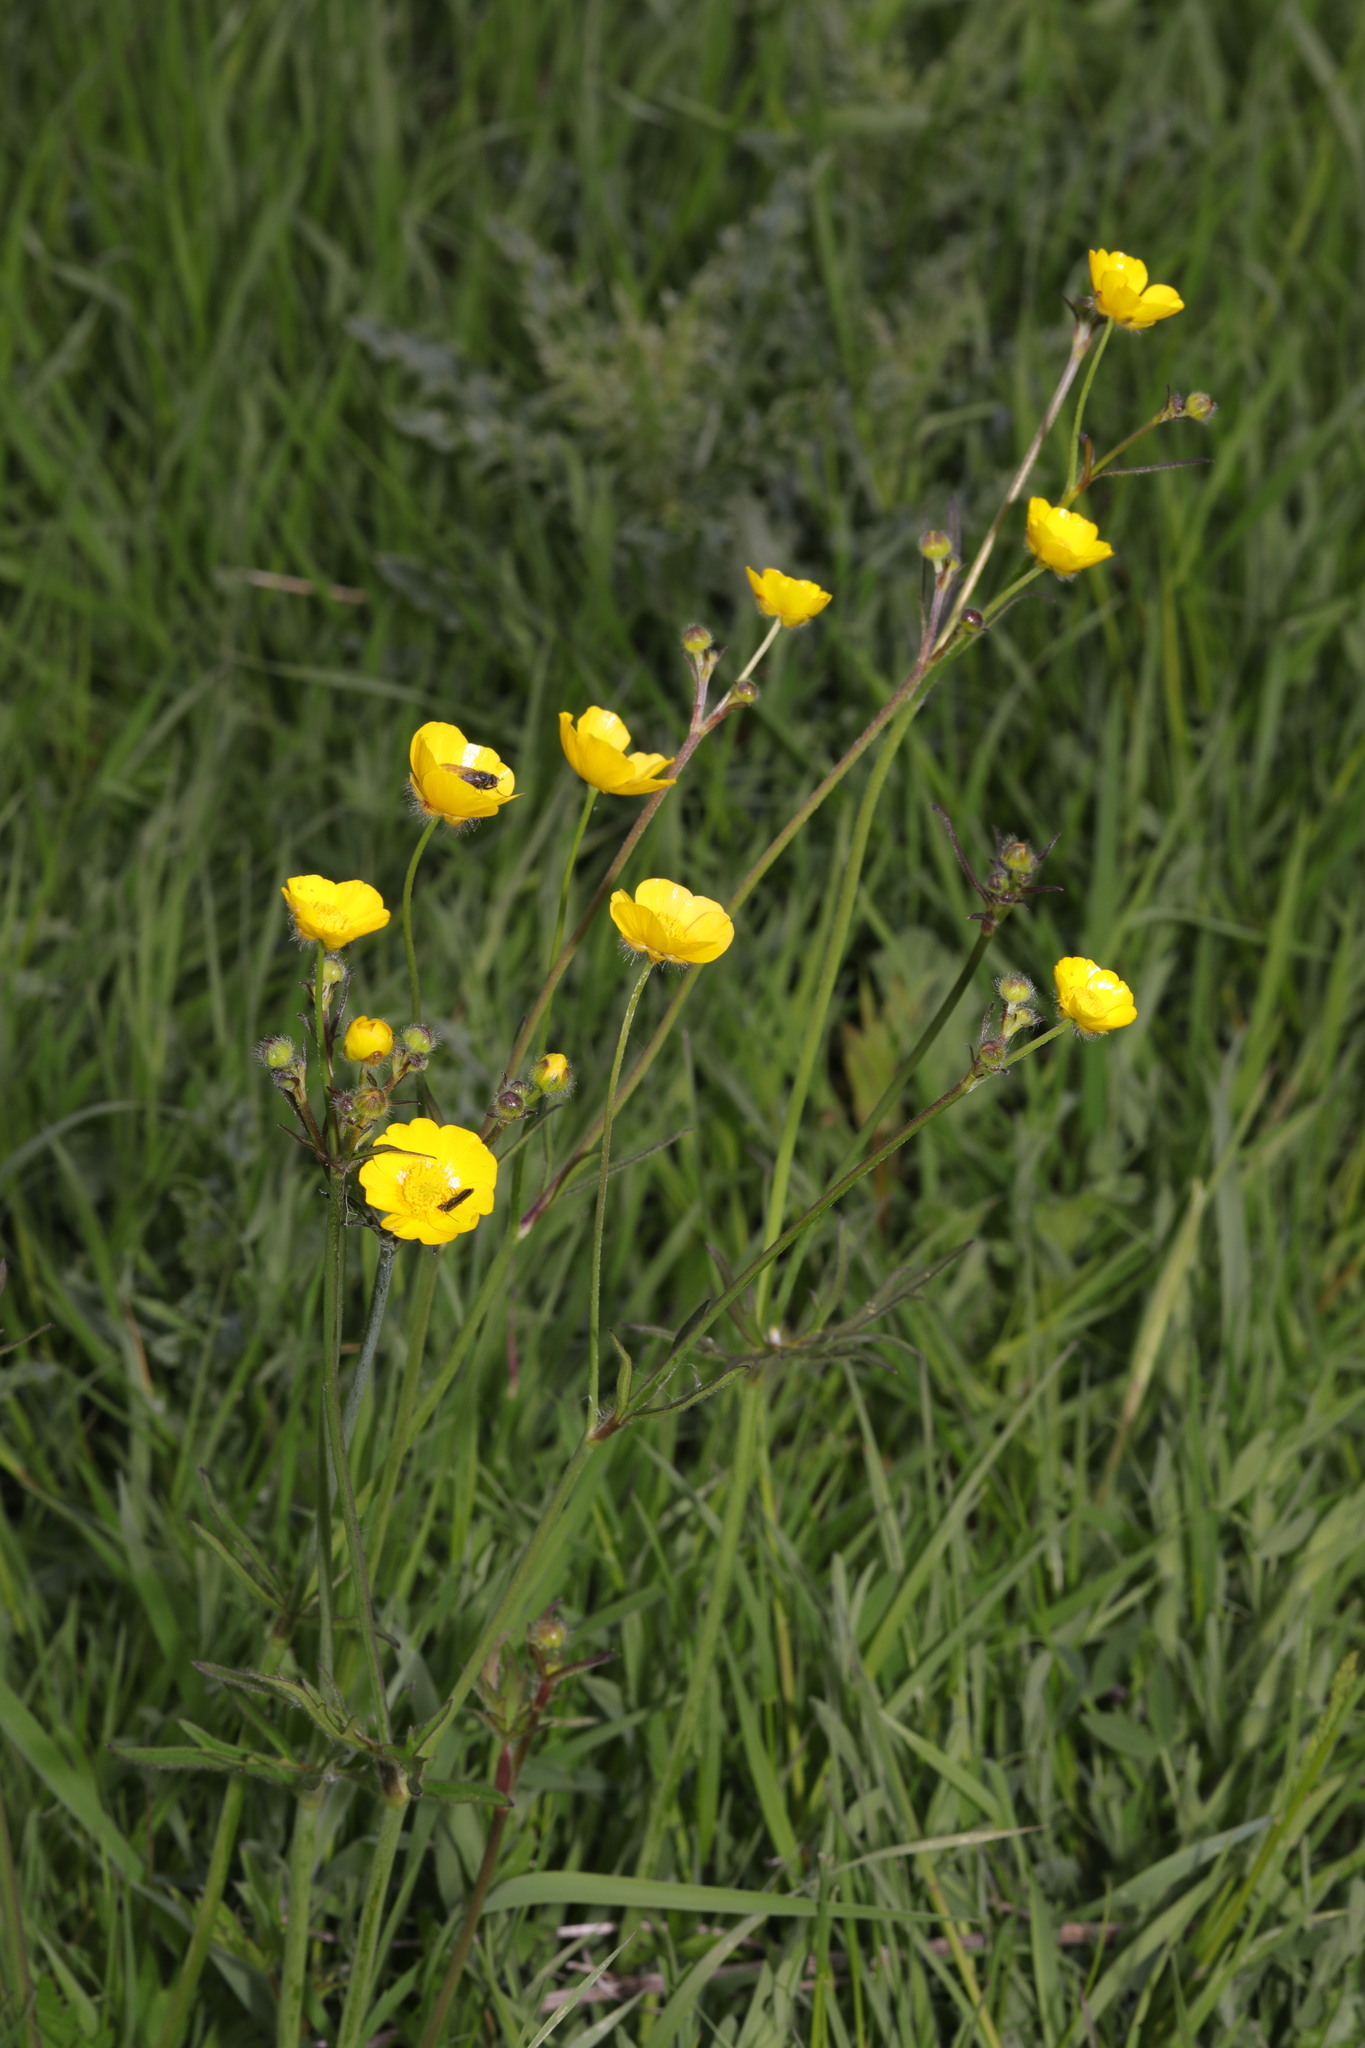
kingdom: Plantae
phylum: Tracheophyta
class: Magnoliopsida
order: Ranunculales
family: Ranunculaceae
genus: Ranunculus
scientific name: Ranunculus acris
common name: Meadow buttercup
